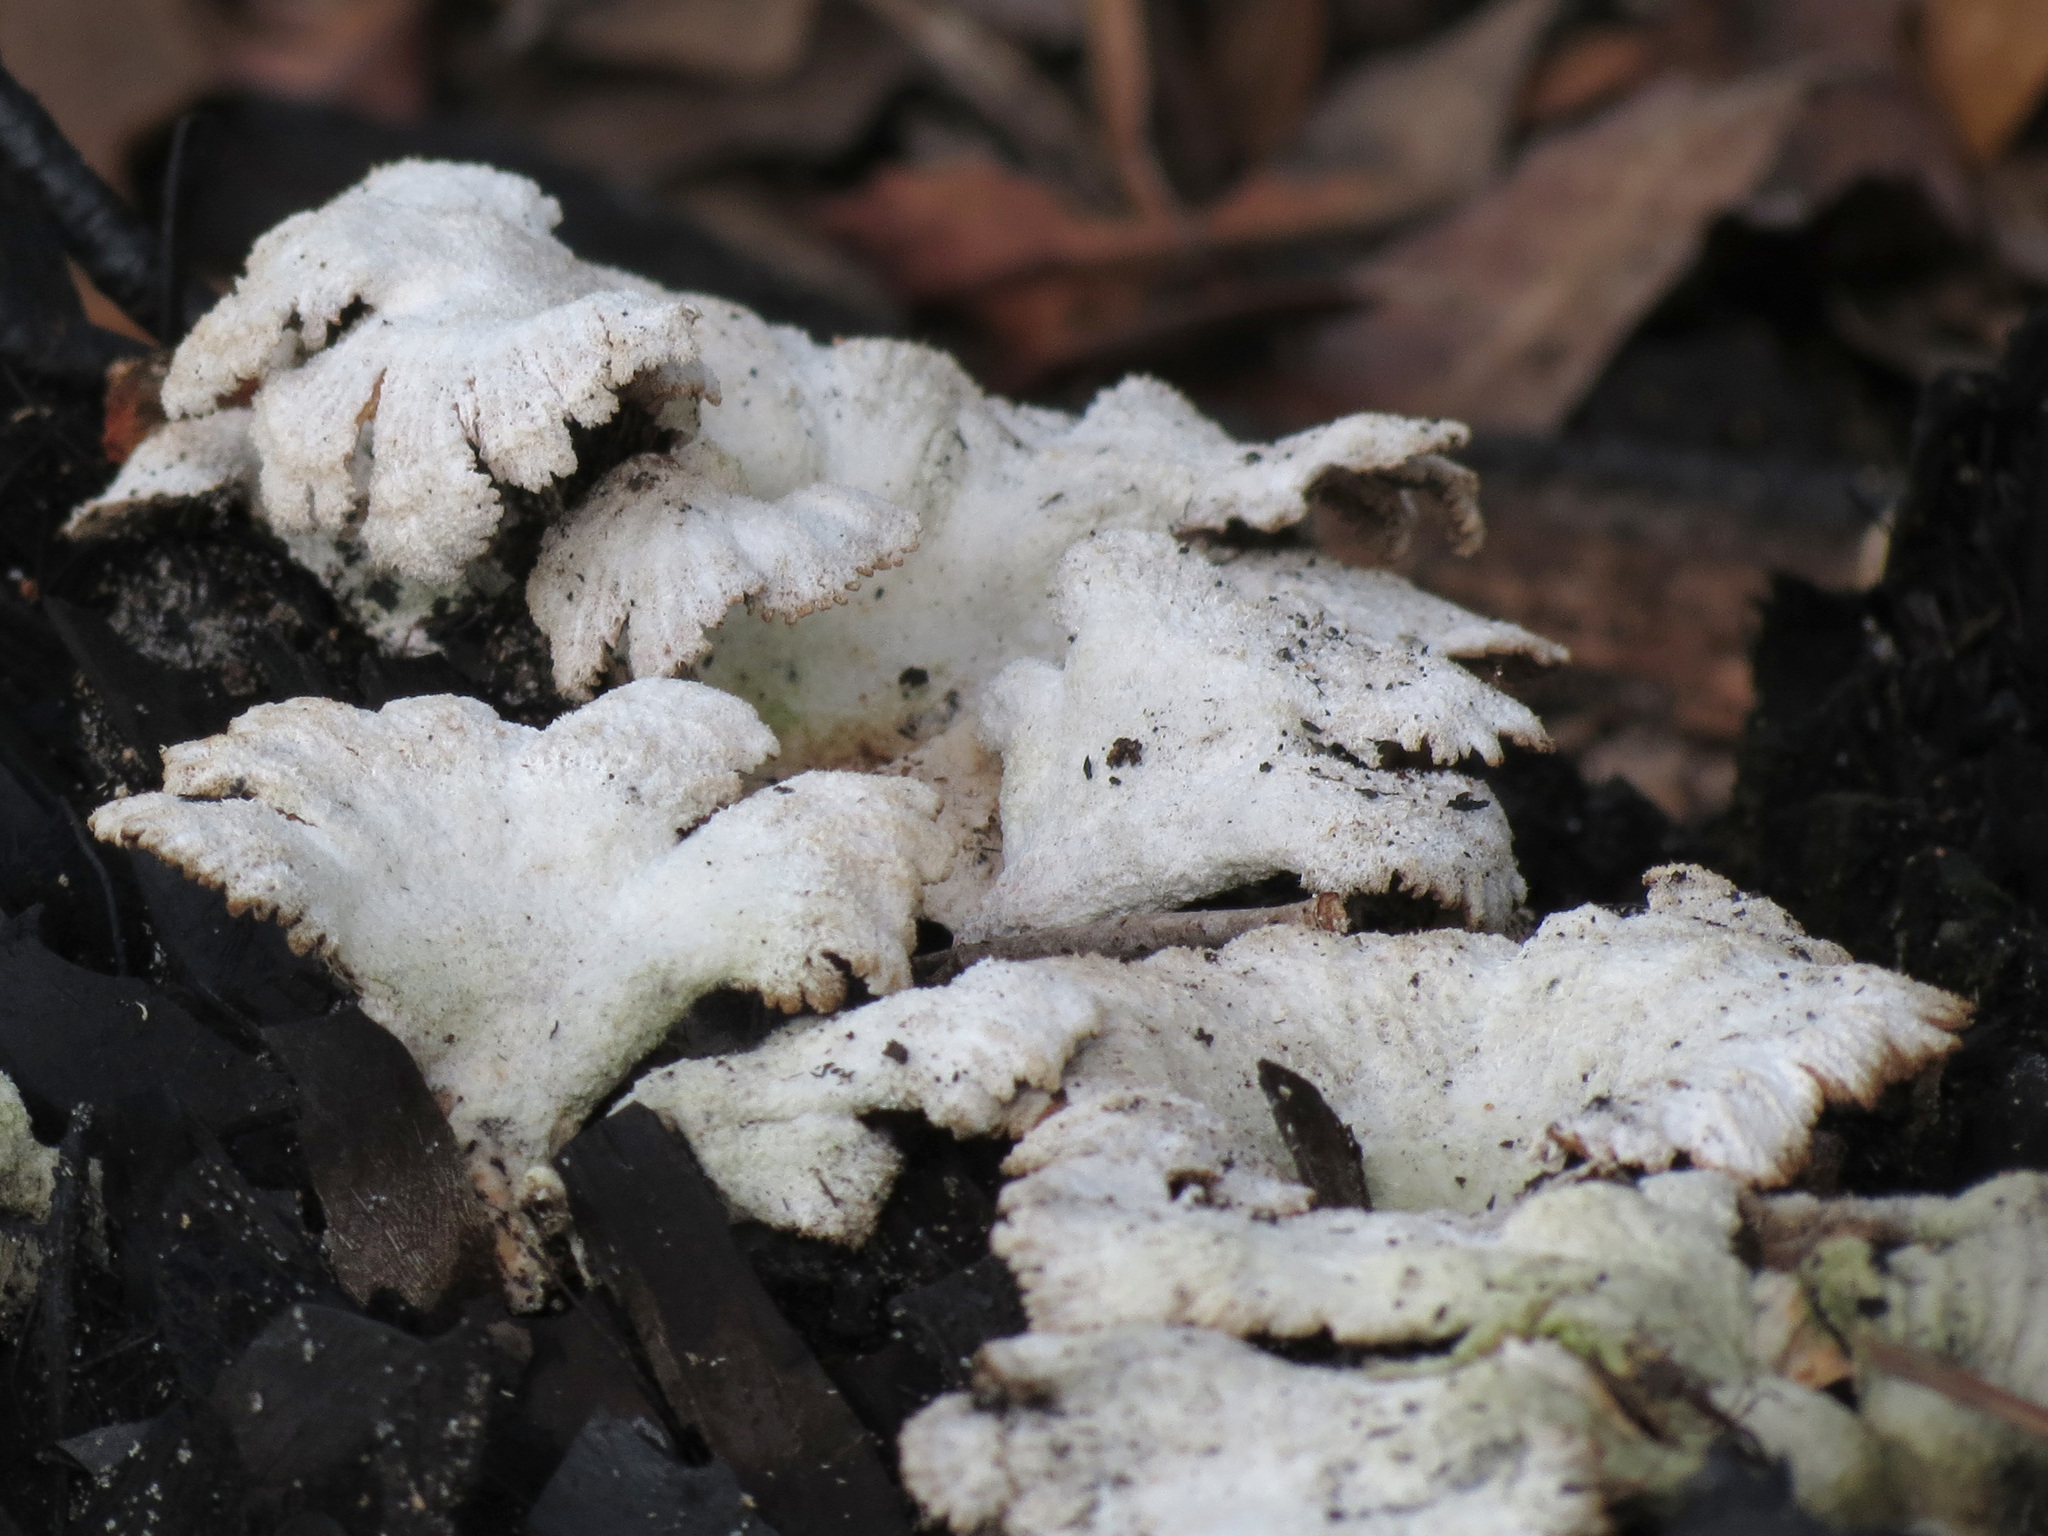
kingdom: Fungi
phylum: Basidiomycota
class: Agaricomycetes
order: Agaricales
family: Schizophyllaceae
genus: Schizophyllum
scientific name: Schizophyllum commune
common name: Common porecrust
